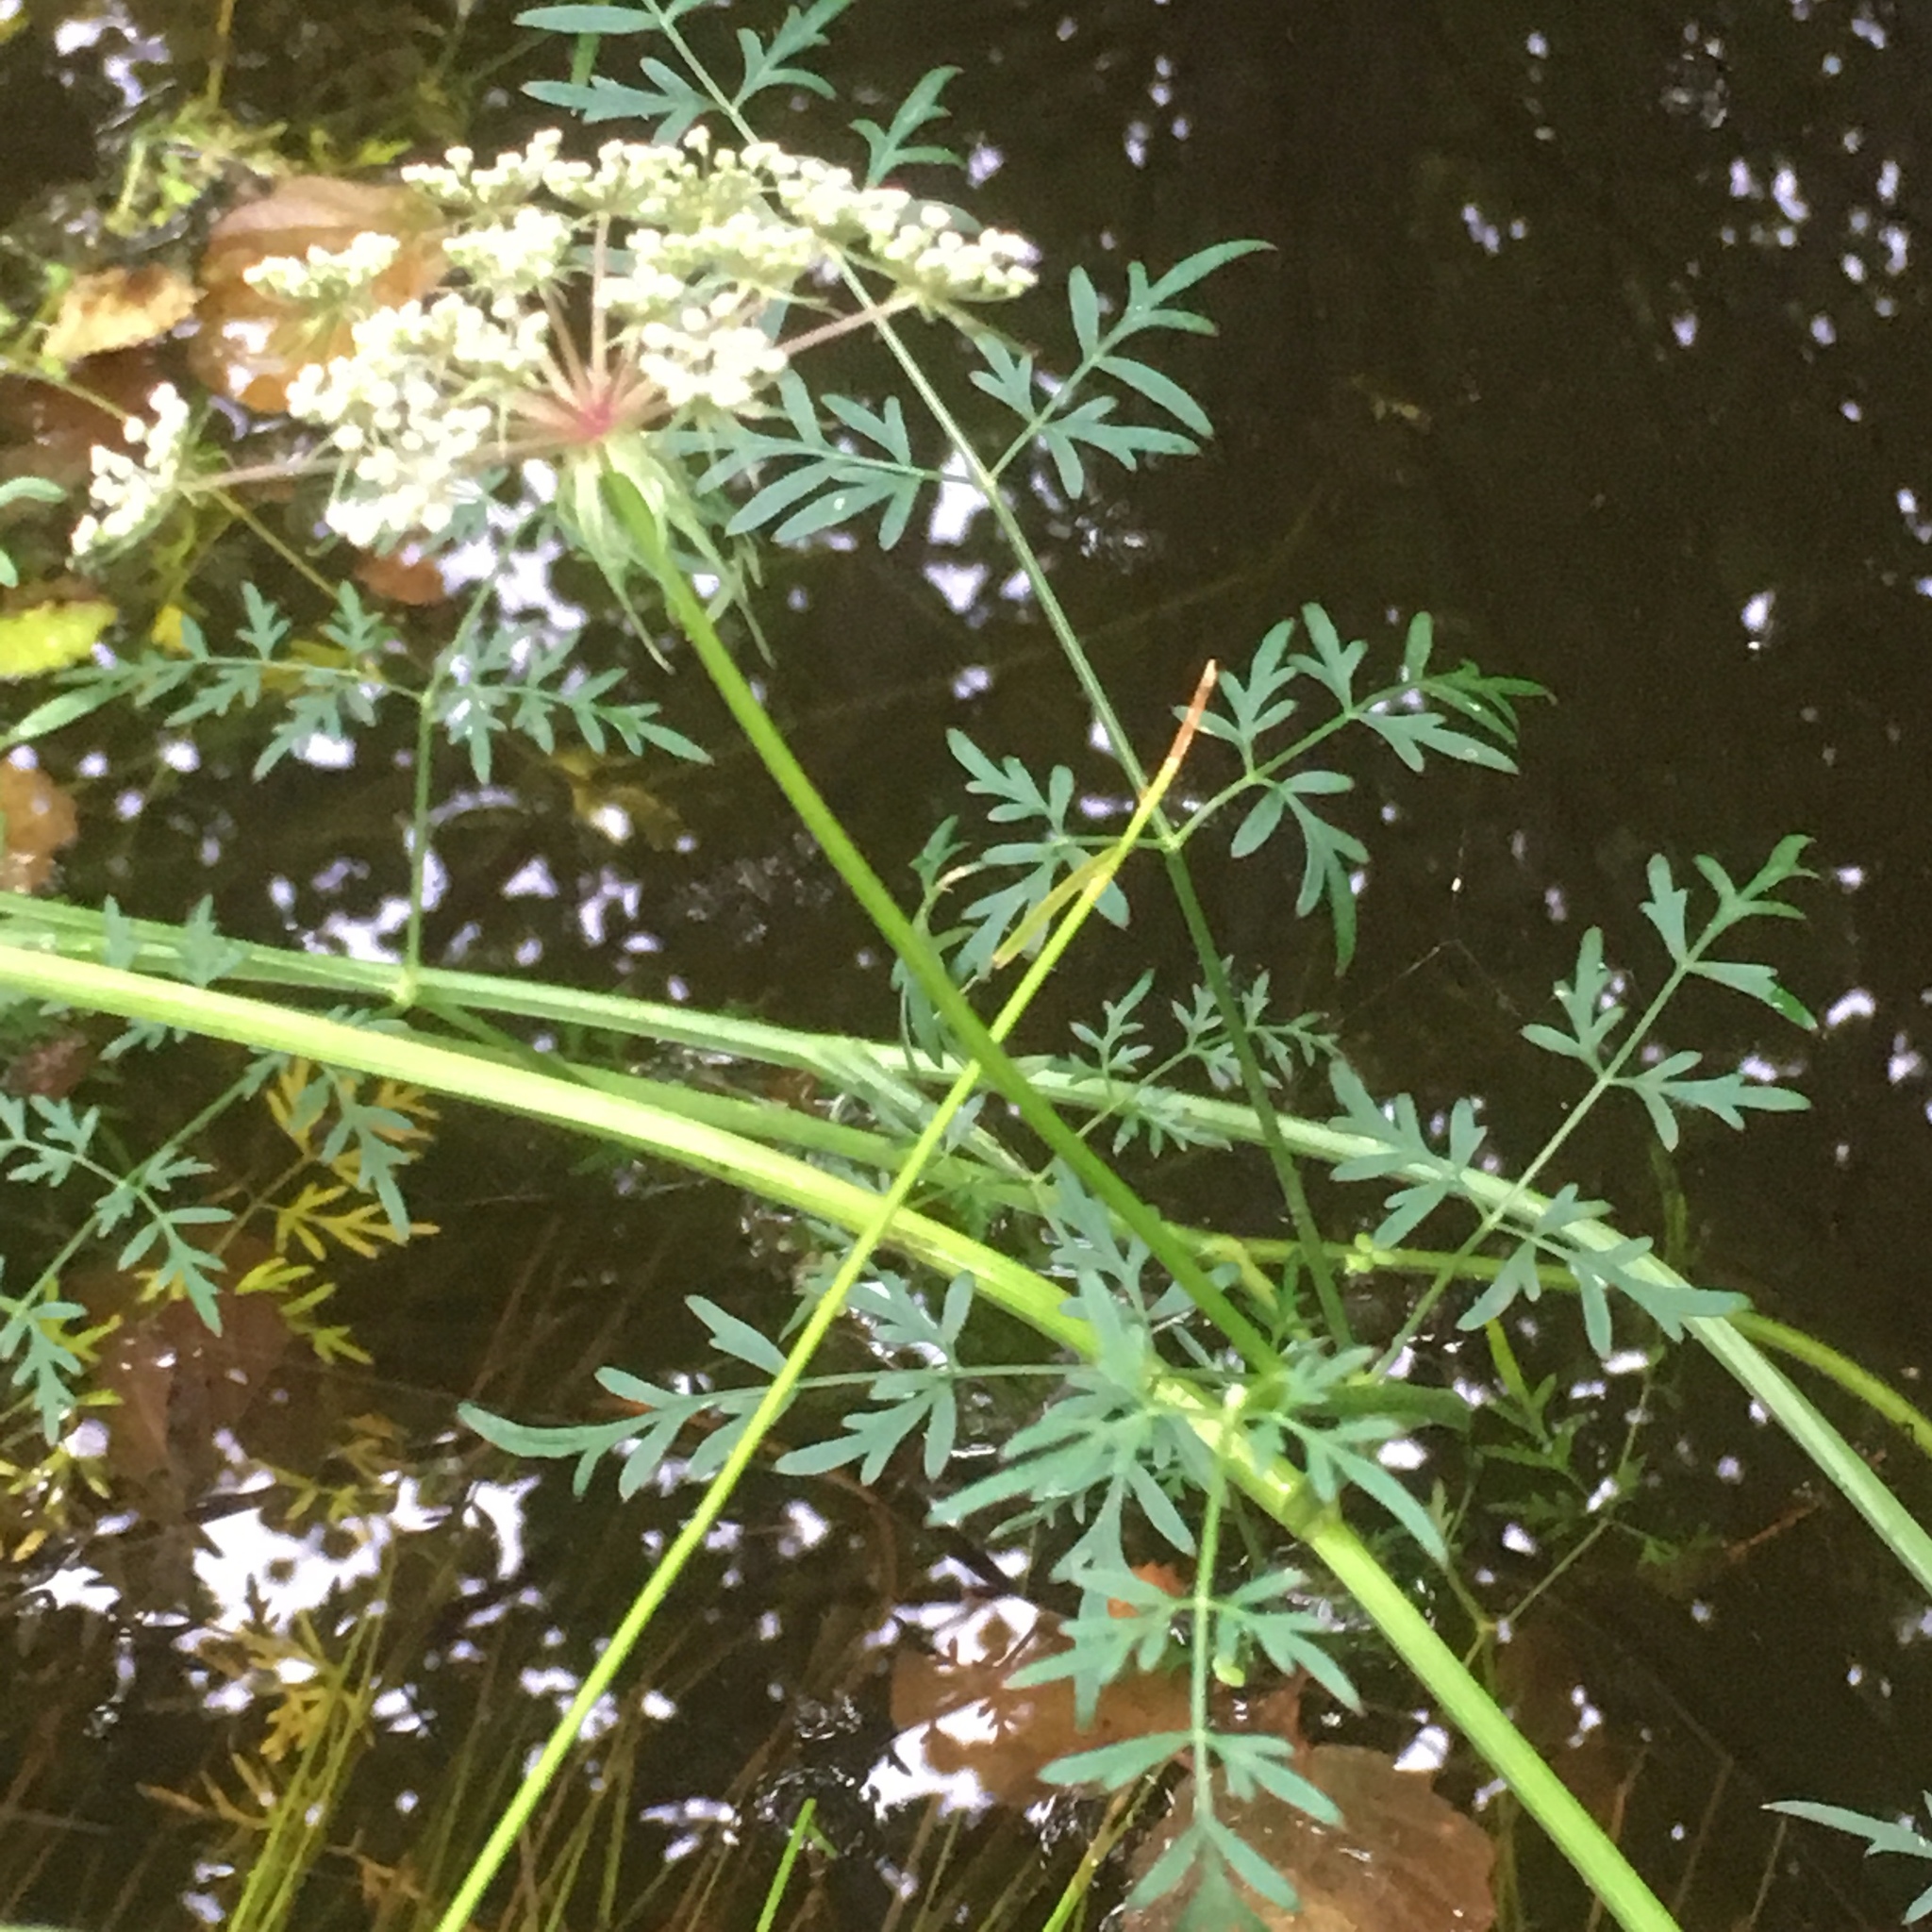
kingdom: Plantae
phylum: Tracheophyta
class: Magnoliopsida
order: Apiales
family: Apiaceae
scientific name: Apiaceae
